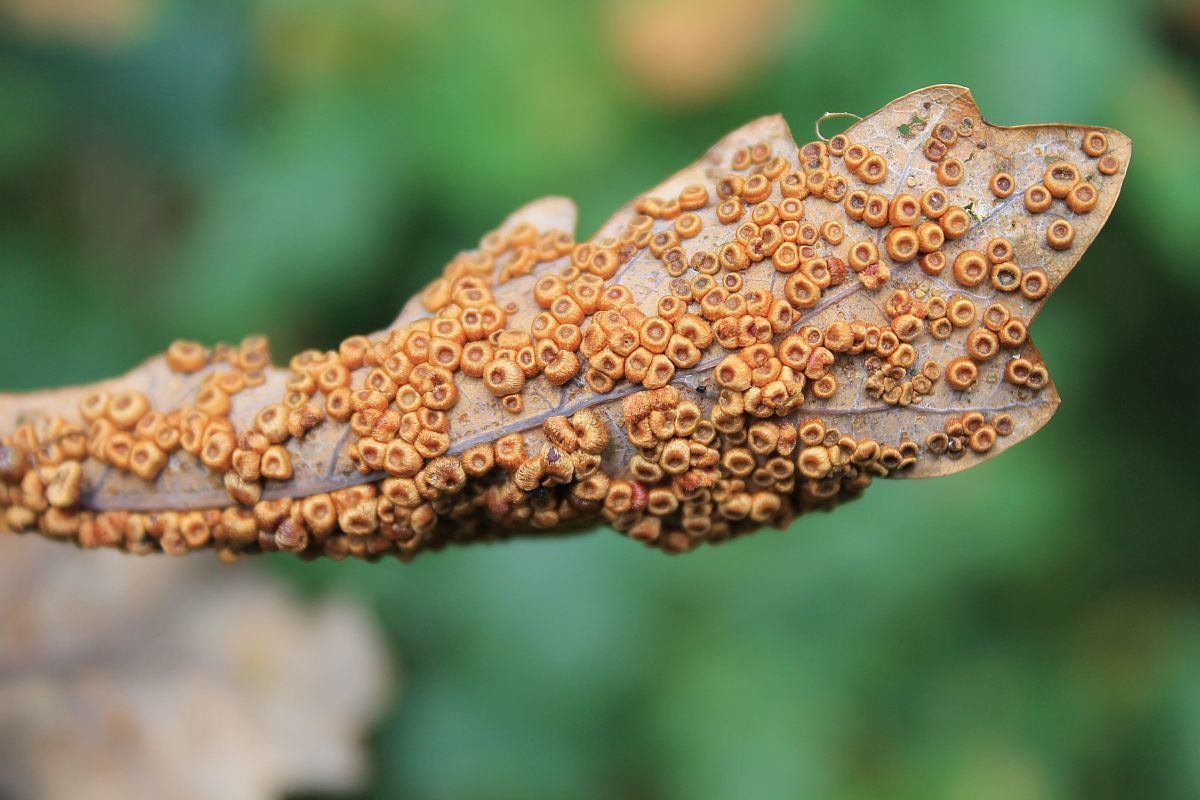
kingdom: Animalia
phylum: Arthropoda
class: Insecta
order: Hymenoptera
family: Cynipidae
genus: Neuroterus
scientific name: Neuroterus numismalis
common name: Silk-button spangle gall
